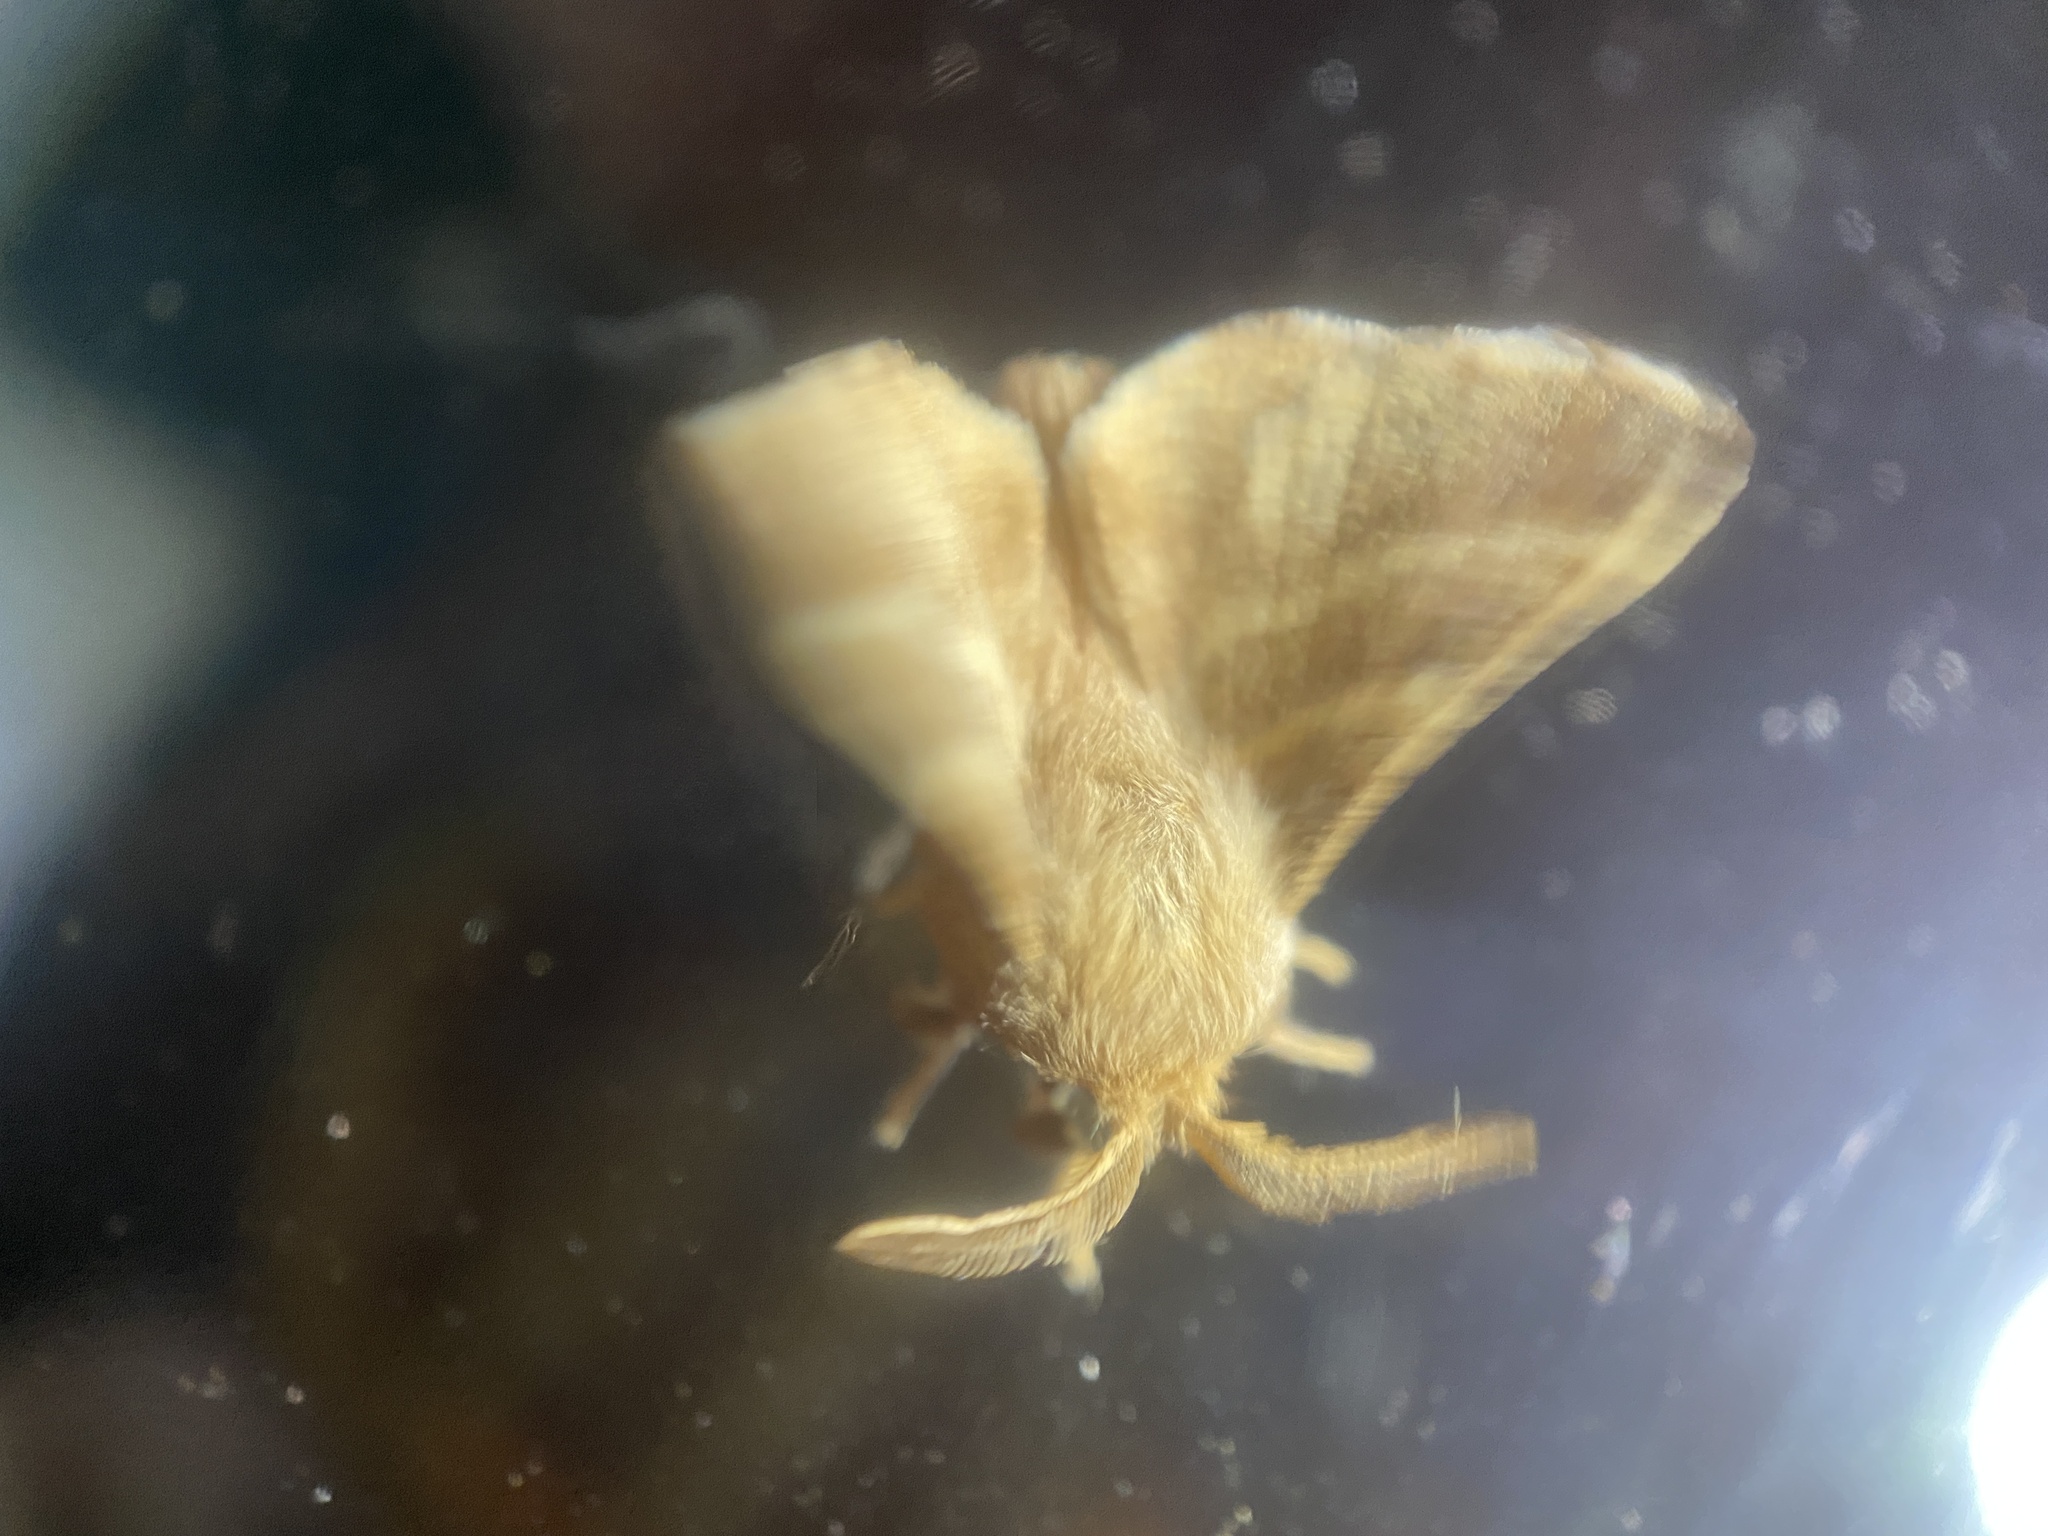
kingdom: Animalia
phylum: Arthropoda
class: Insecta
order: Lepidoptera
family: Lasiocampidae
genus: Malacosoma
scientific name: Malacosoma americana
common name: Eastern tent caterpillar moth
